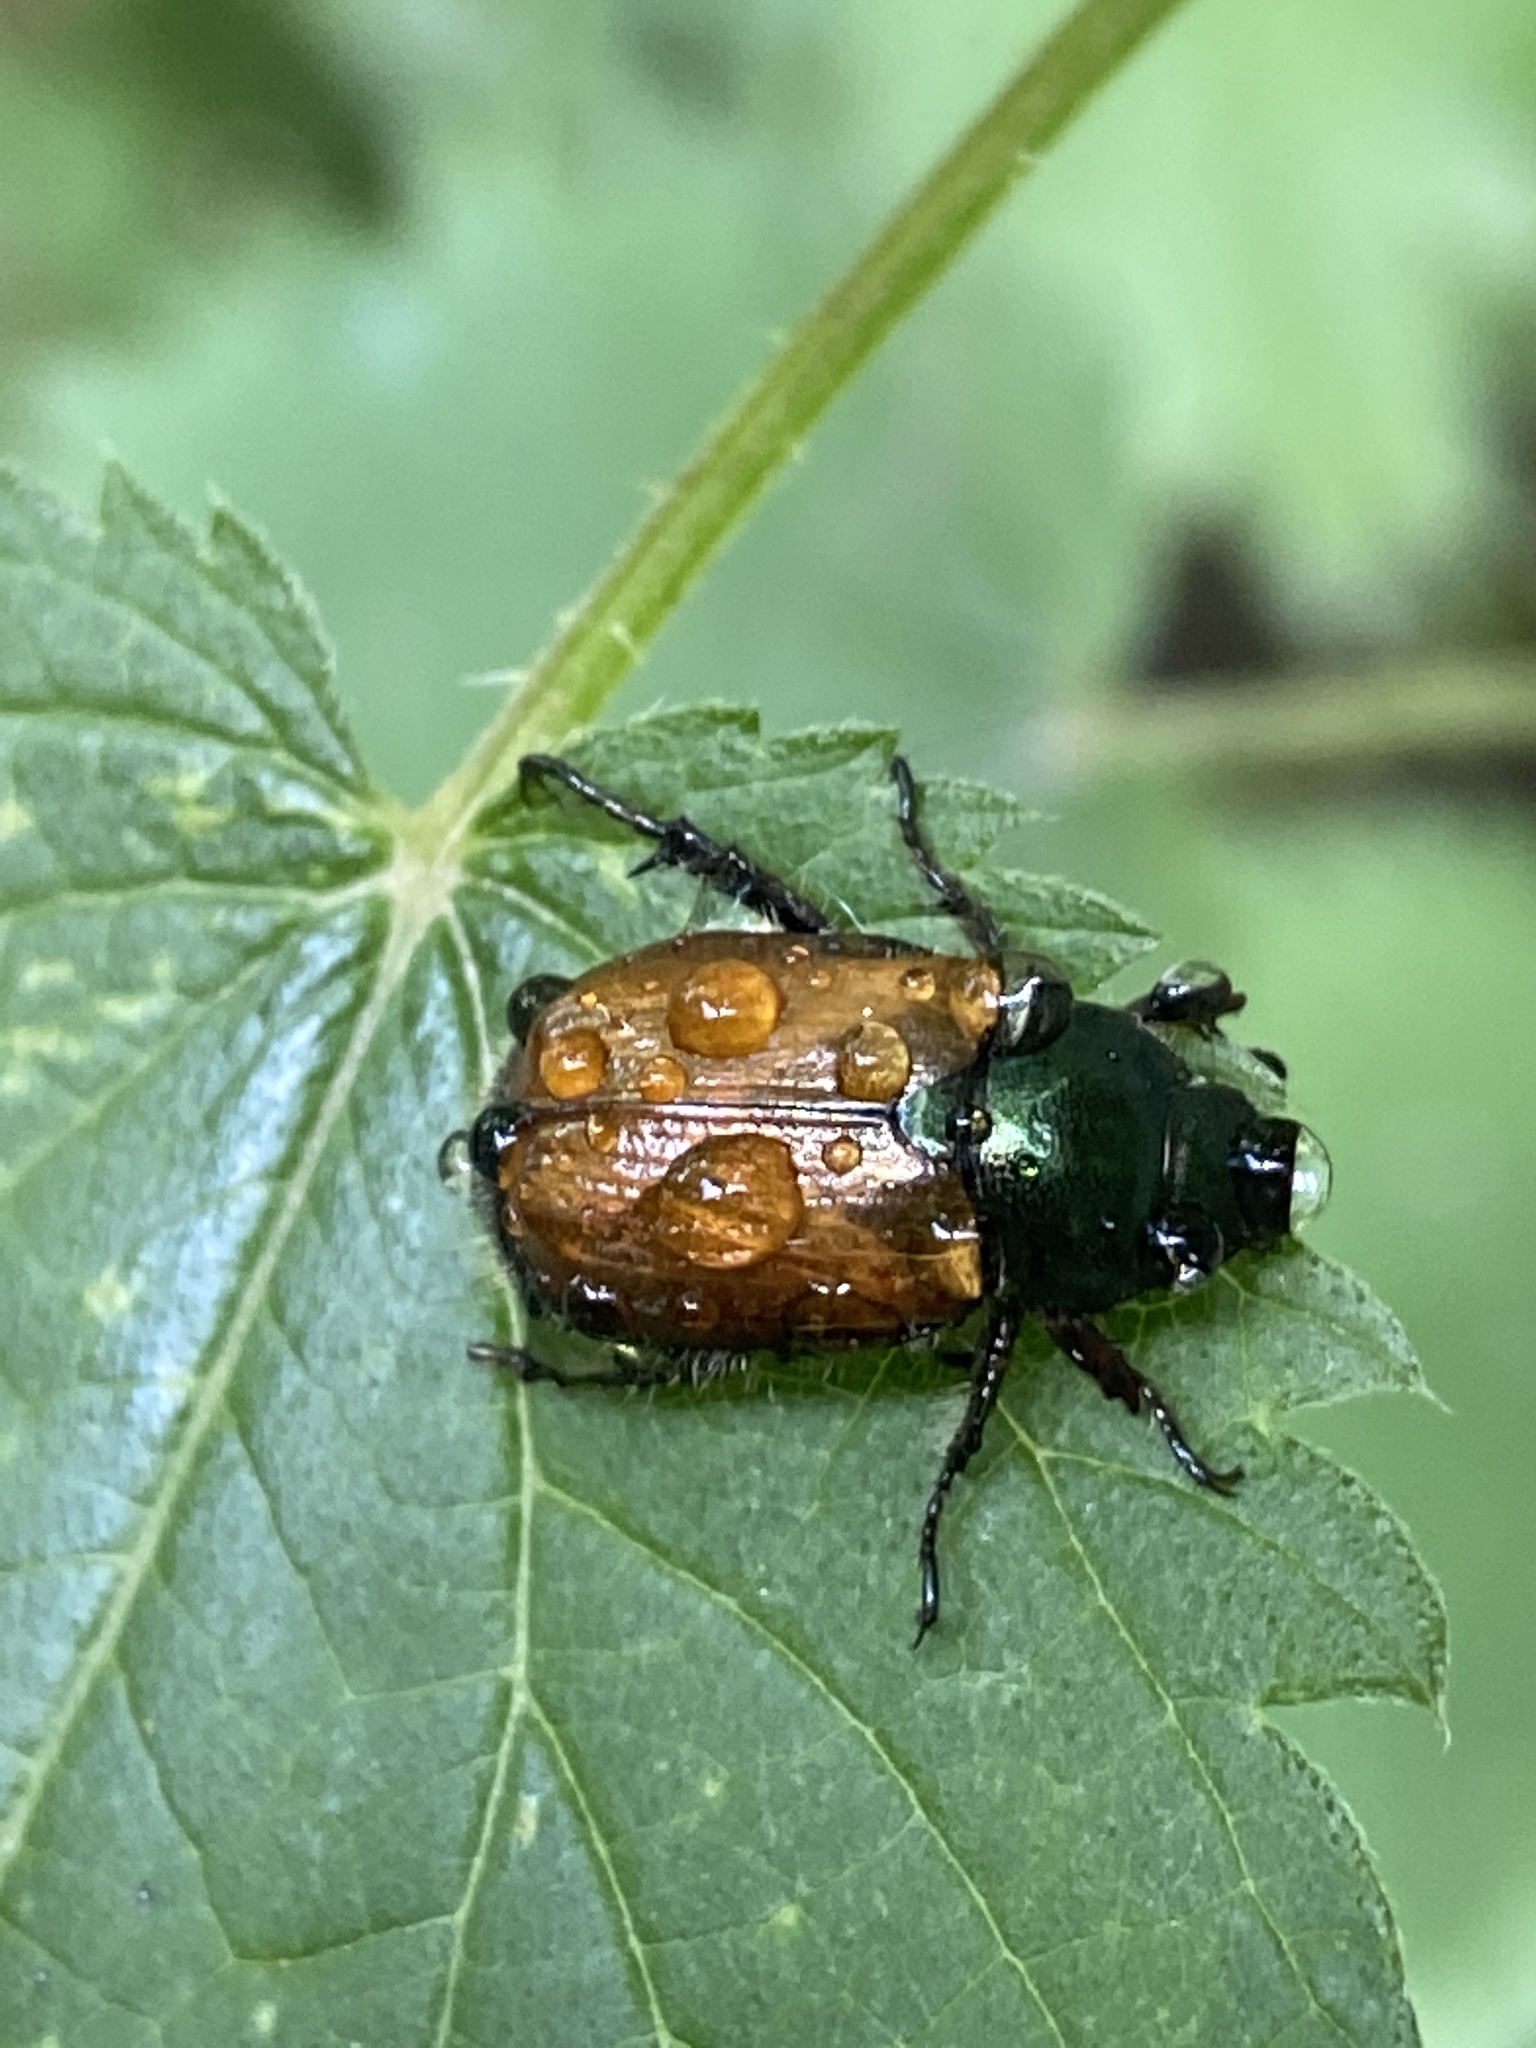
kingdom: Animalia
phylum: Arthropoda
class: Insecta
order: Coleoptera
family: Scarabaeidae
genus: Phyllopertha
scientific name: Phyllopertha horticola
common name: Garden chafer
